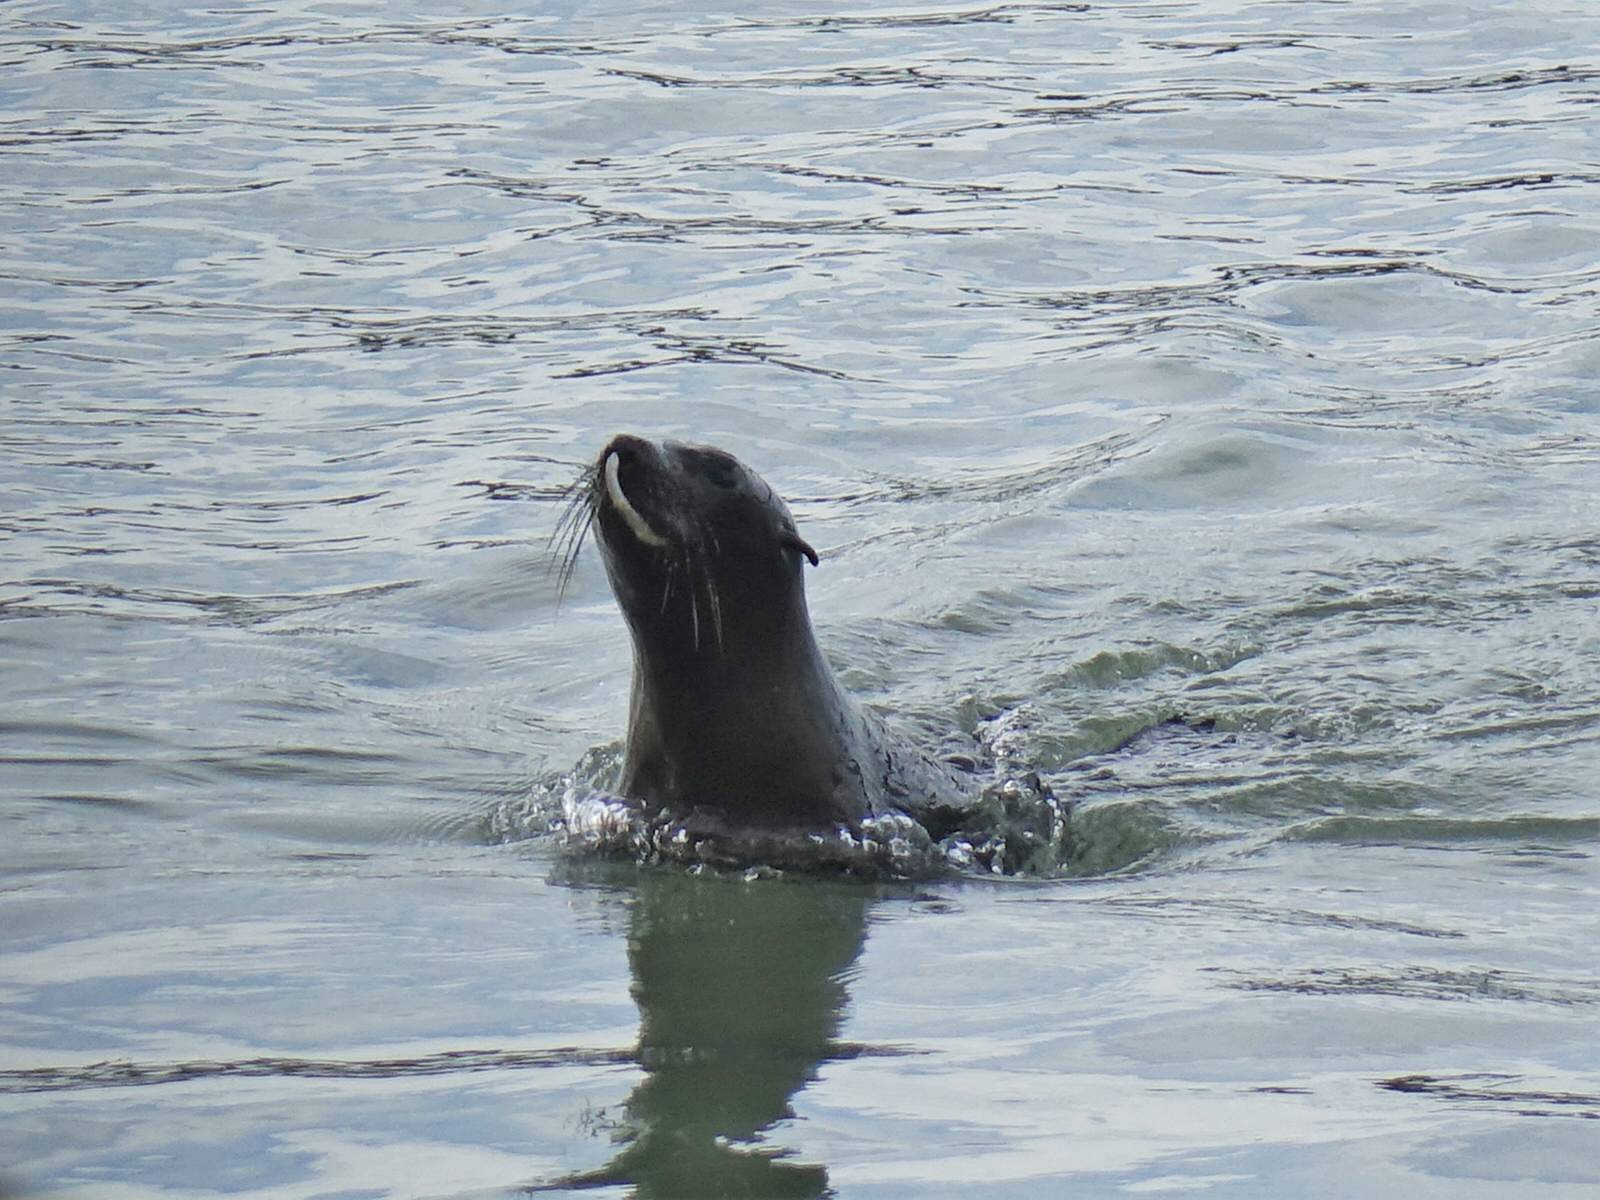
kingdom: Animalia
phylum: Chordata
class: Mammalia
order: Carnivora
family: Otariidae
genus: Arctocephalus
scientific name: Arctocephalus forsteri
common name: New zealand fur seal
